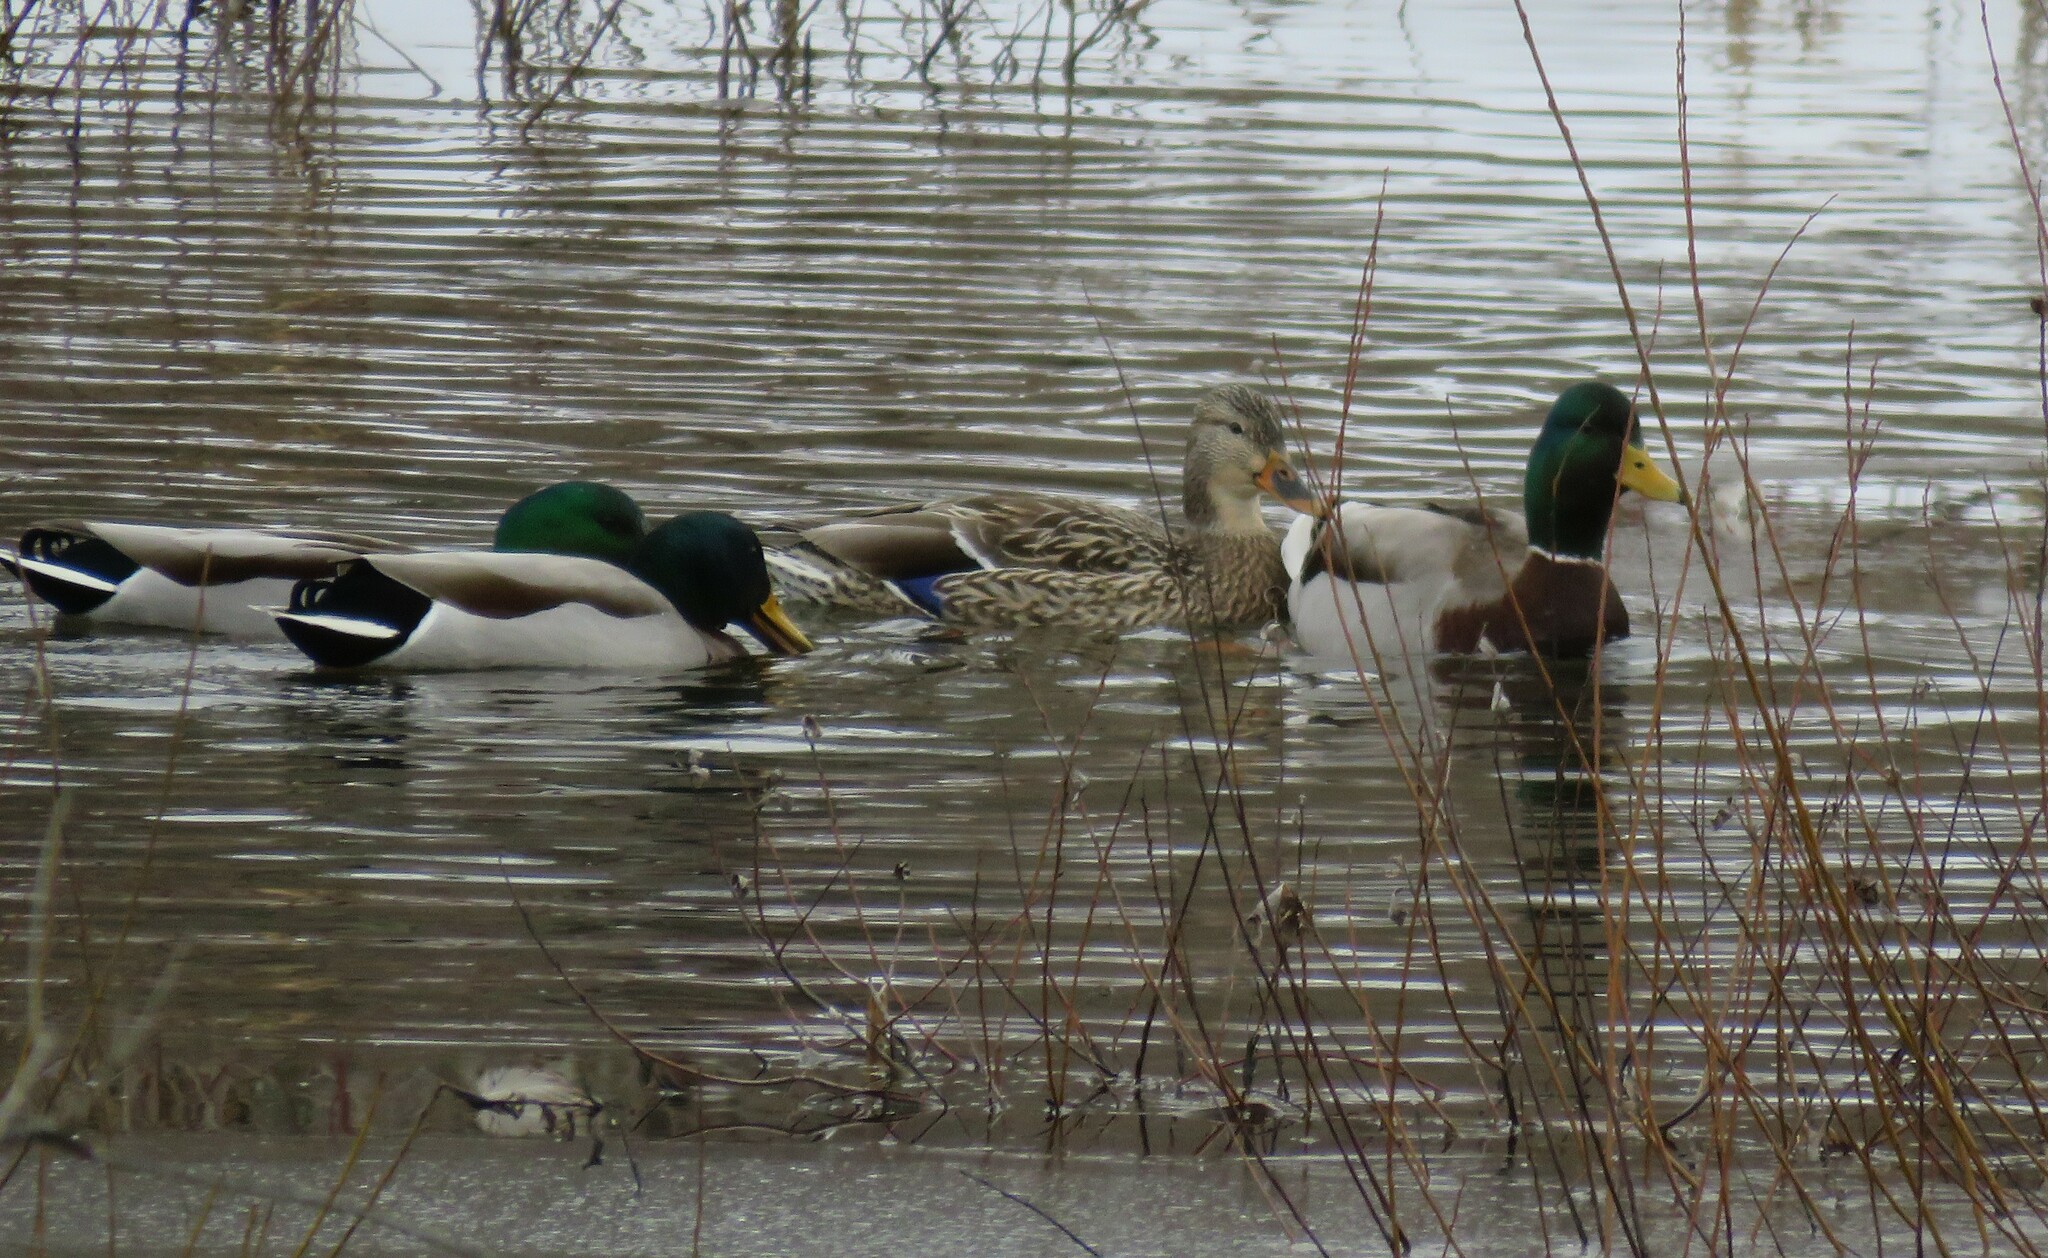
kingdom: Animalia
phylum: Chordata
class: Aves
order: Anseriformes
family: Anatidae
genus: Anas
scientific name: Anas platyrhynchos
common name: Mallard
